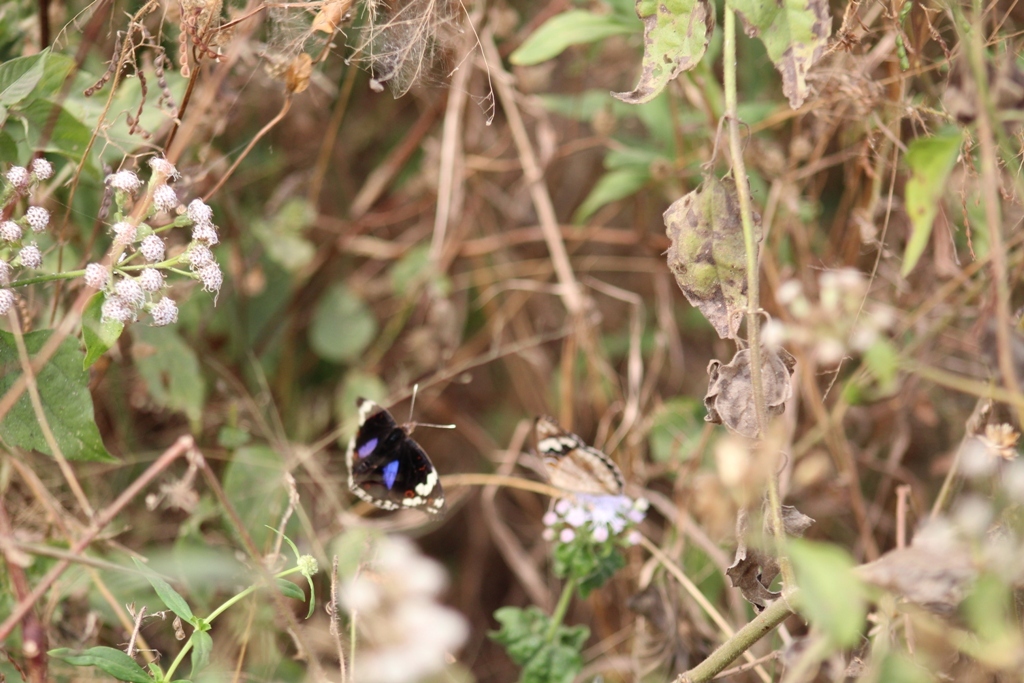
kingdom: Animalia
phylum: Arthropoda
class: Insecta
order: Lepidoptera
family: Nymphalidae
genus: Junonia
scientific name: Junonia oenone
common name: Dark blue pansy
